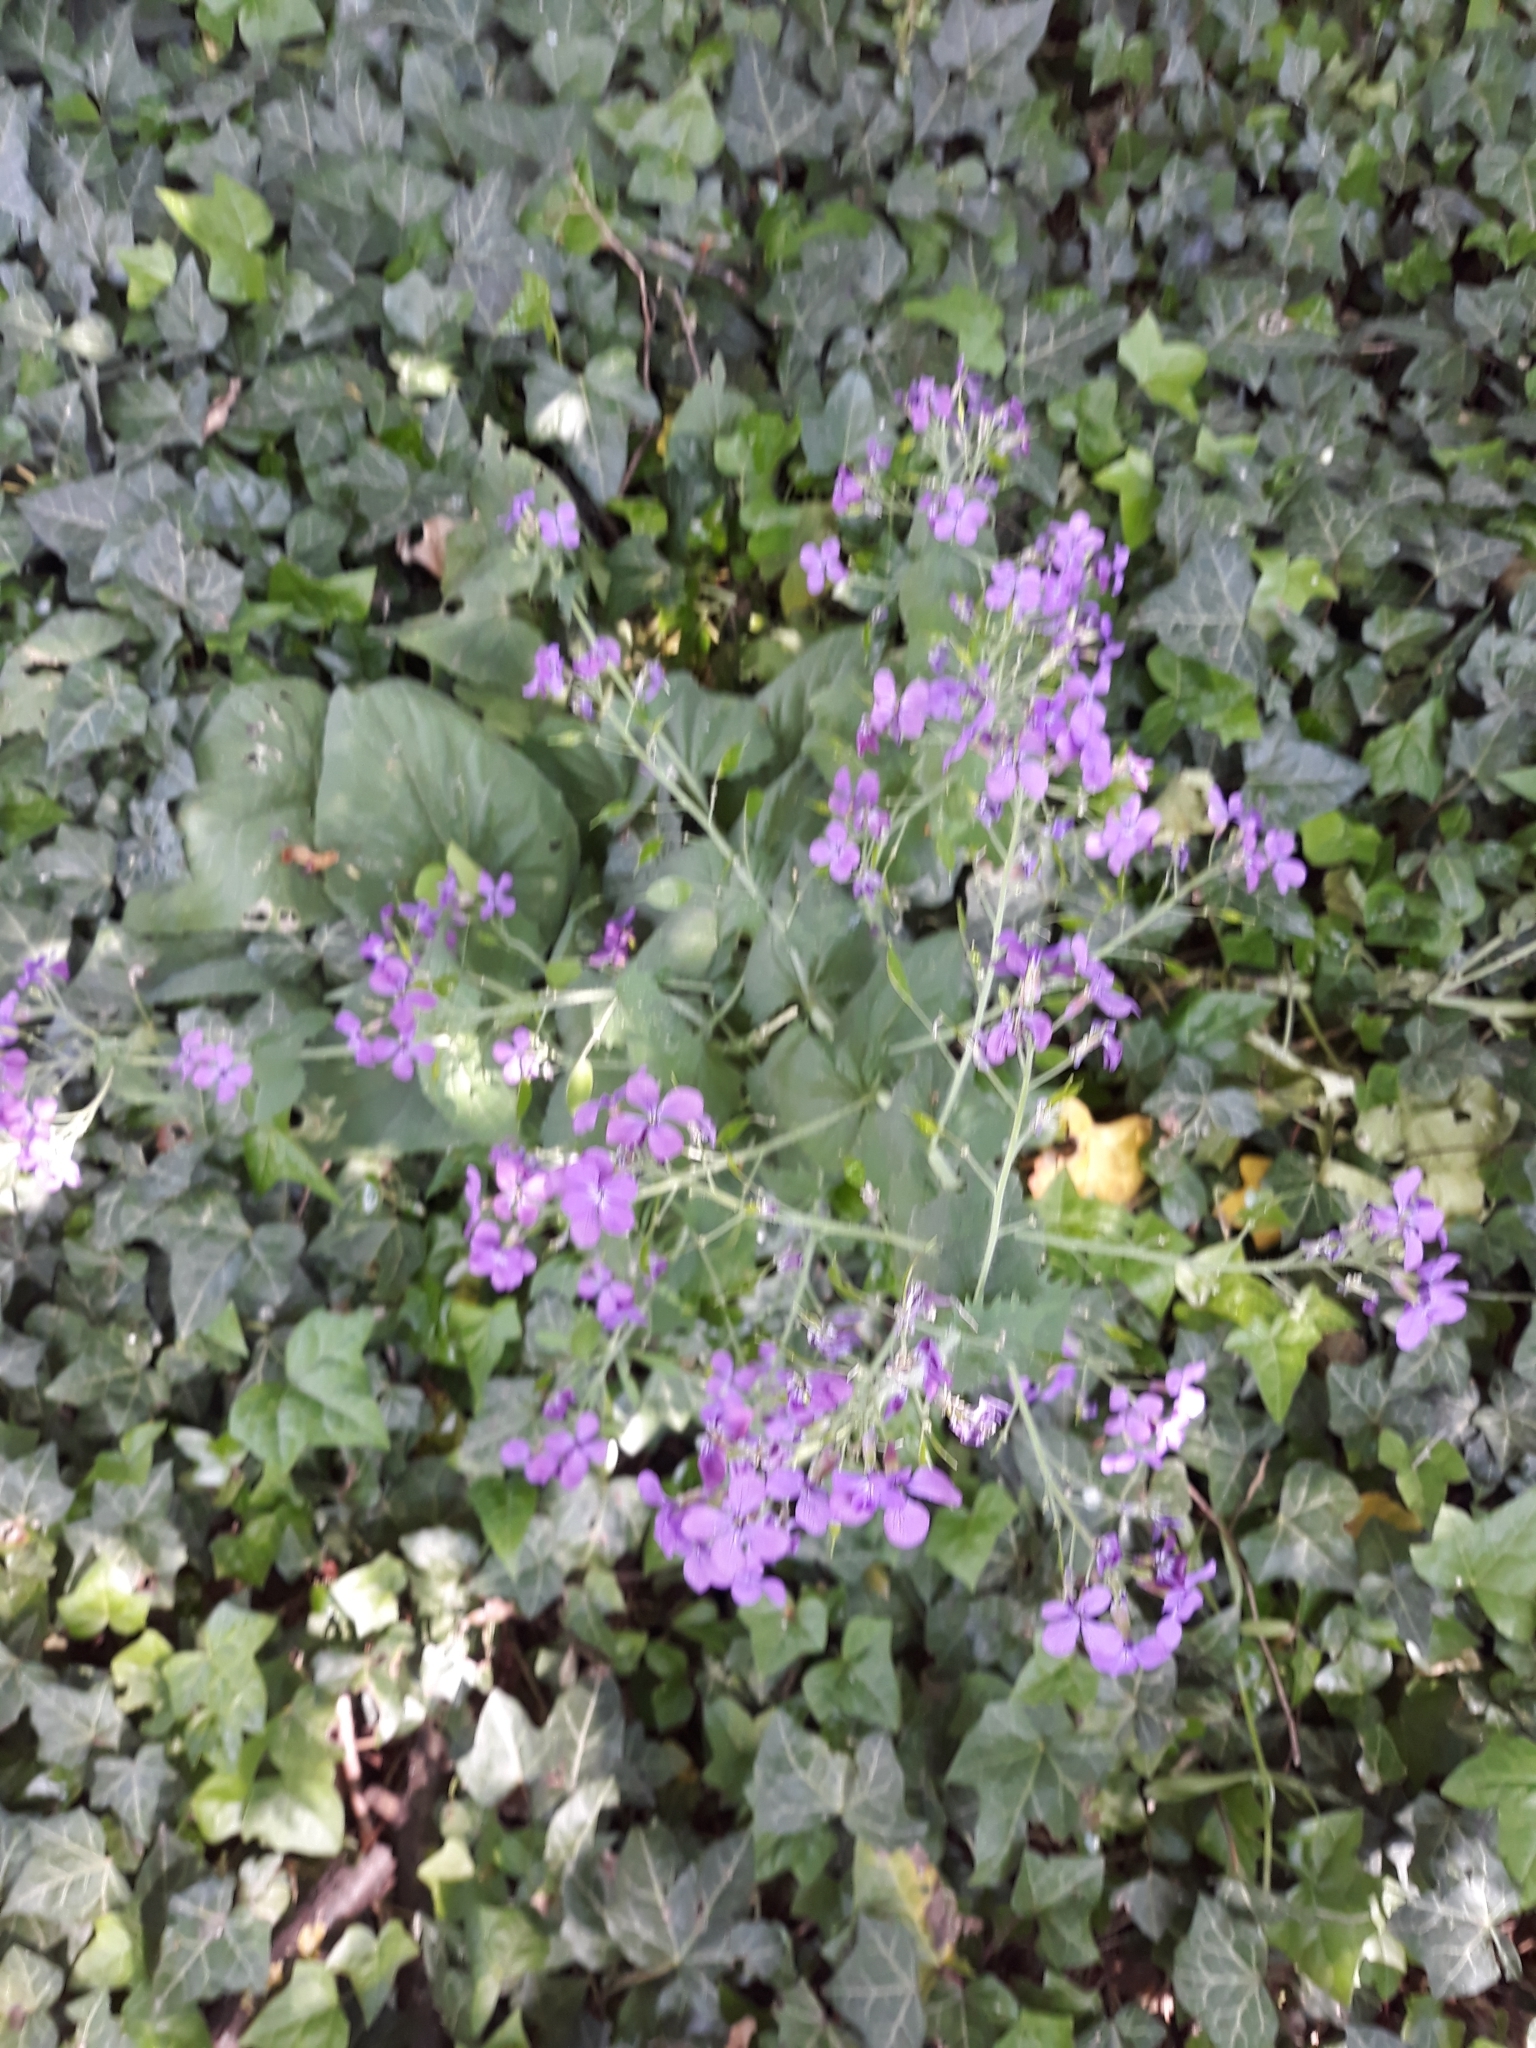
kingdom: Plantae
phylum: Tracheophyta
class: Magnoliopsida
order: Brassicales
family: Brassicaceae
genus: Lunaria
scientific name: Lunaria annua
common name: Honesty
